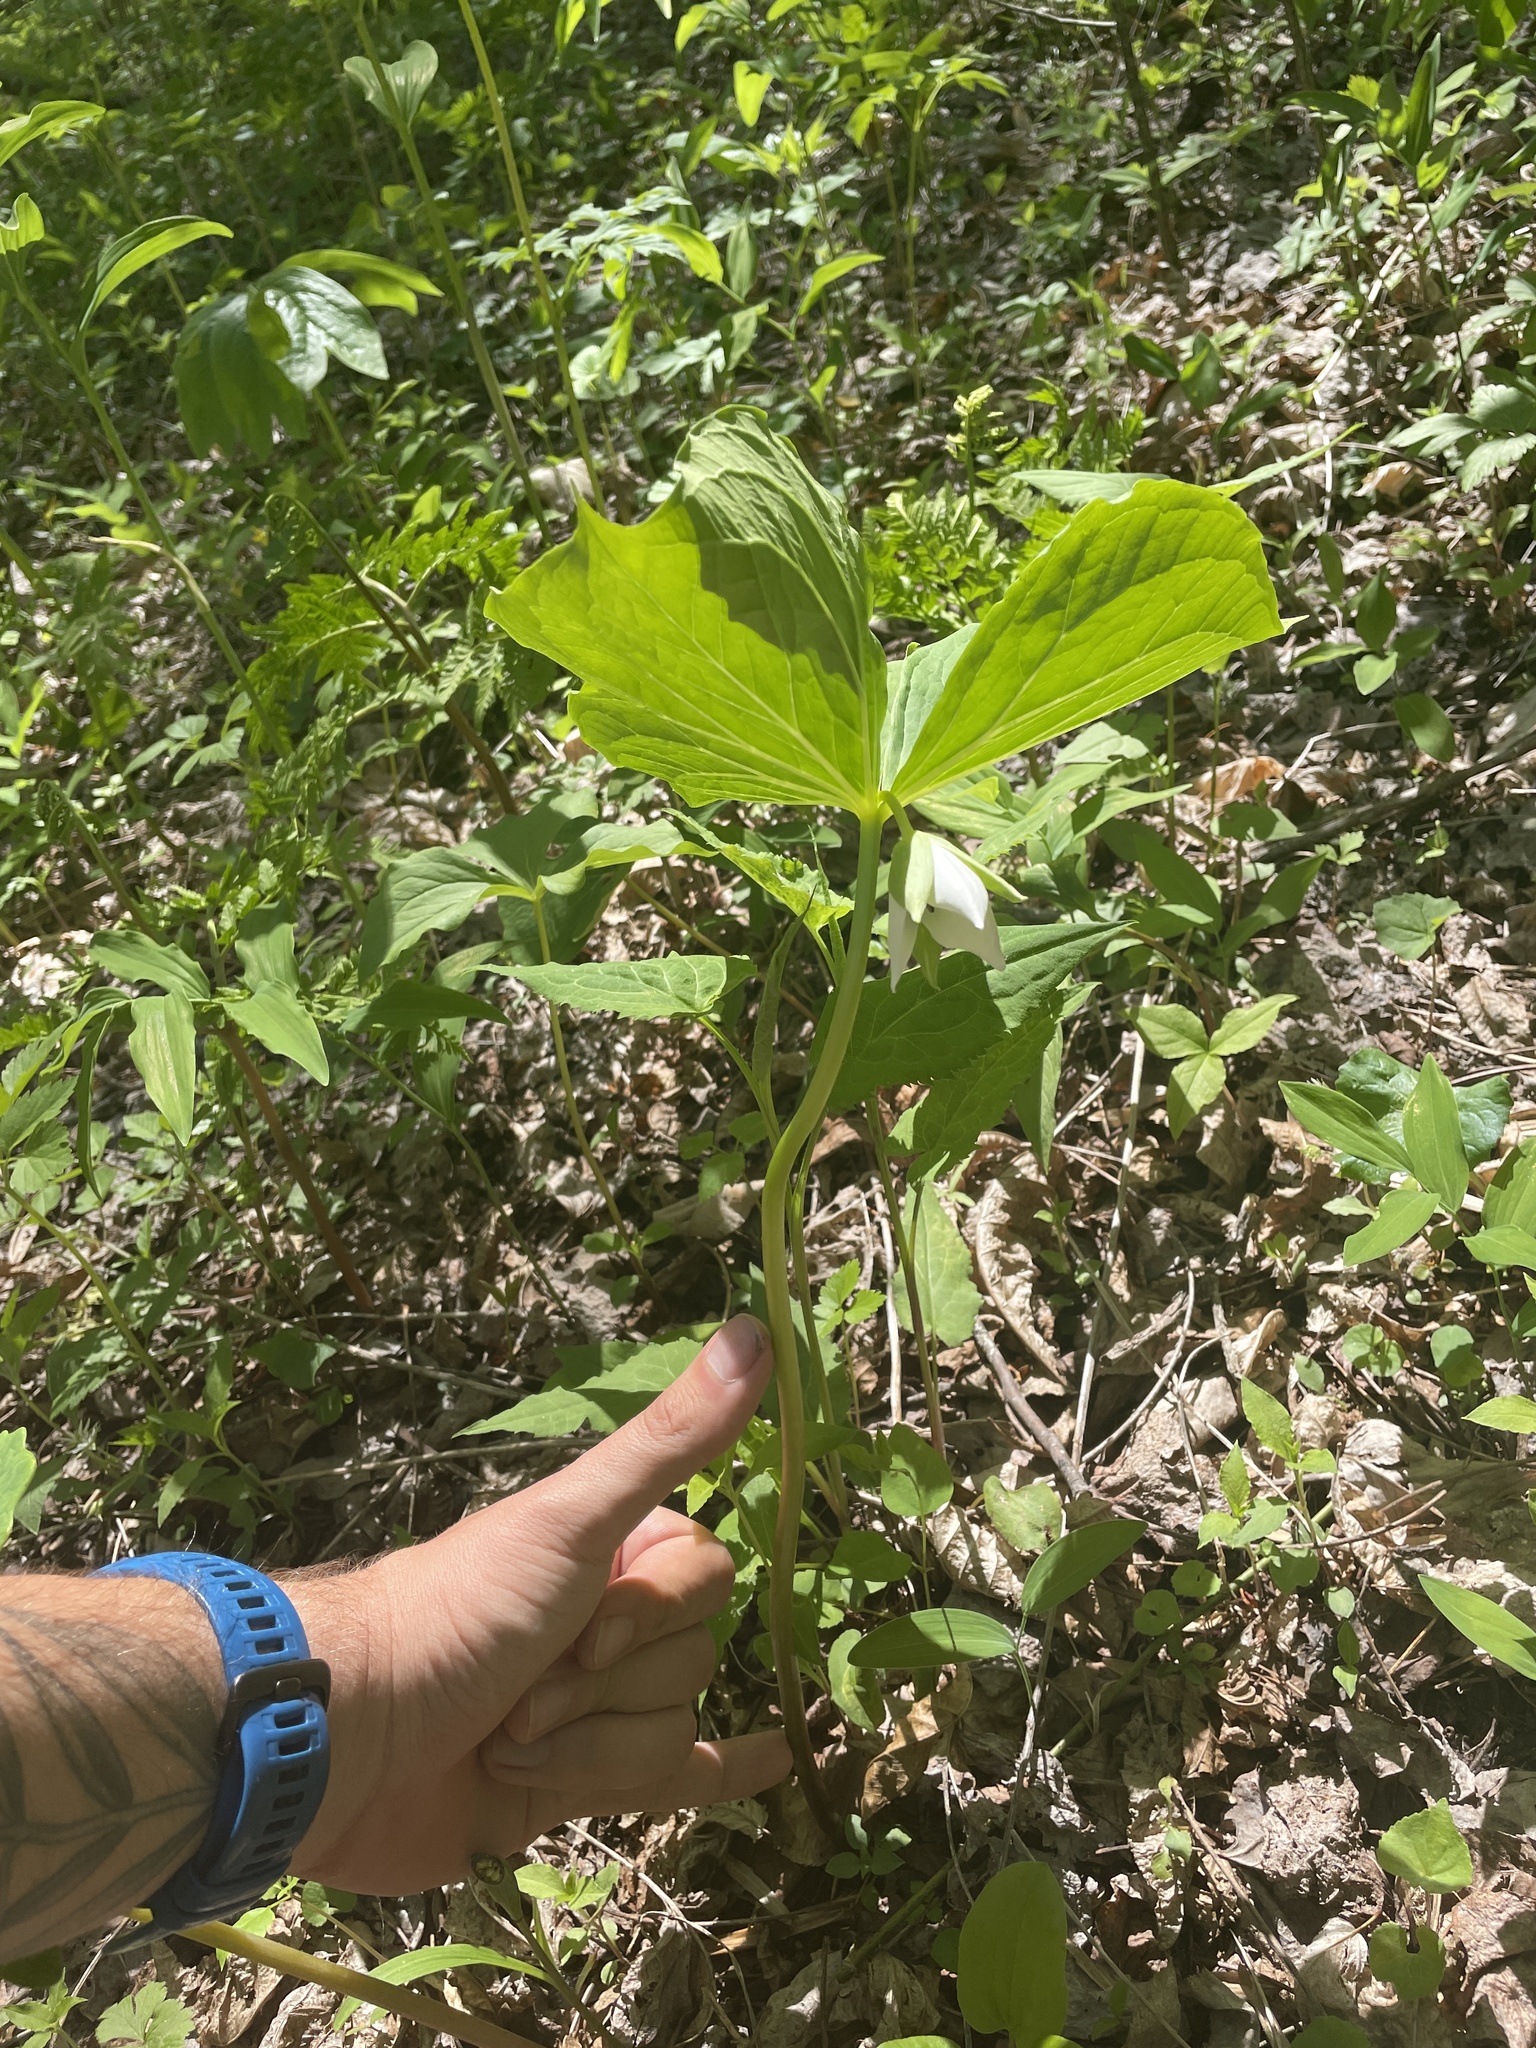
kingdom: Plantae
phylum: Tracheophyta
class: Liliopsida
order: Liliales
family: Melanthiaceae
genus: Trillium
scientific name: Trillium rugelii
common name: Ill-scented trillium
